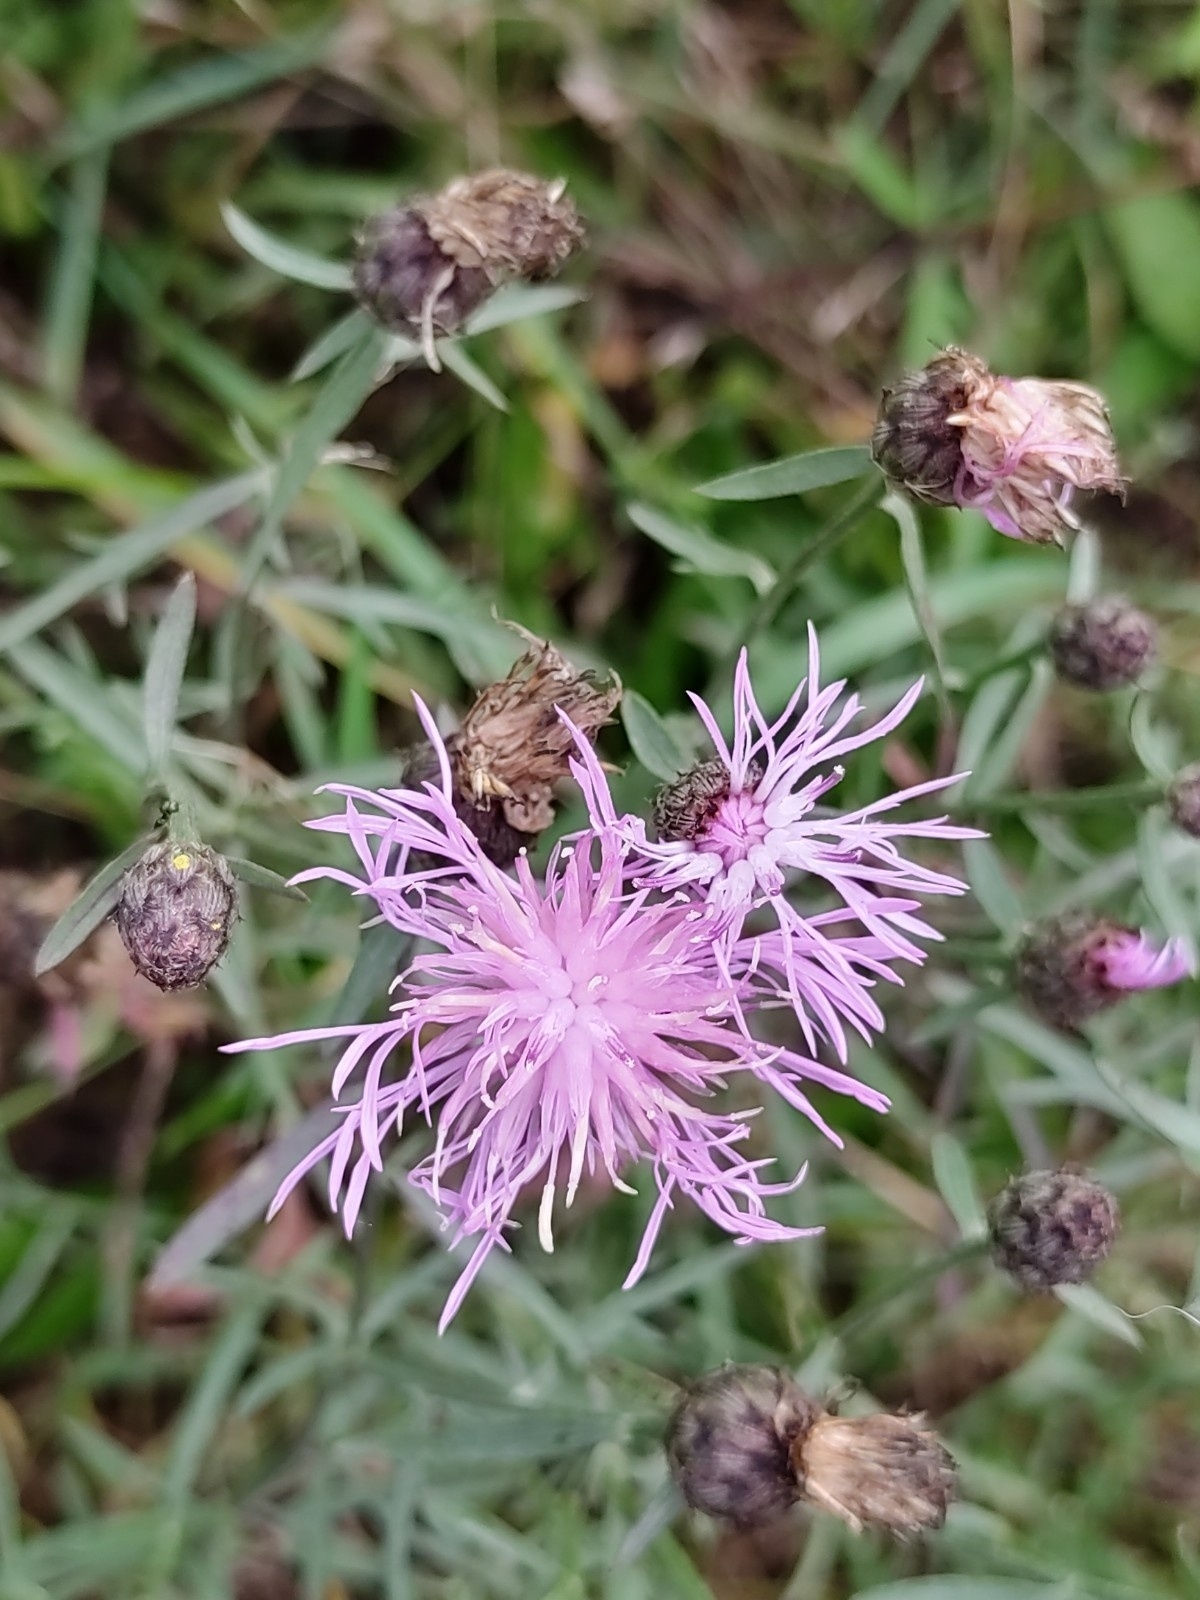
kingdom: Plantae
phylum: Tracheophyta
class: Magnoliopsida
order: Asterales
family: Asteraceae
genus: Centaurea
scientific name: Centaurea stoebe
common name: Spotted knapweed
